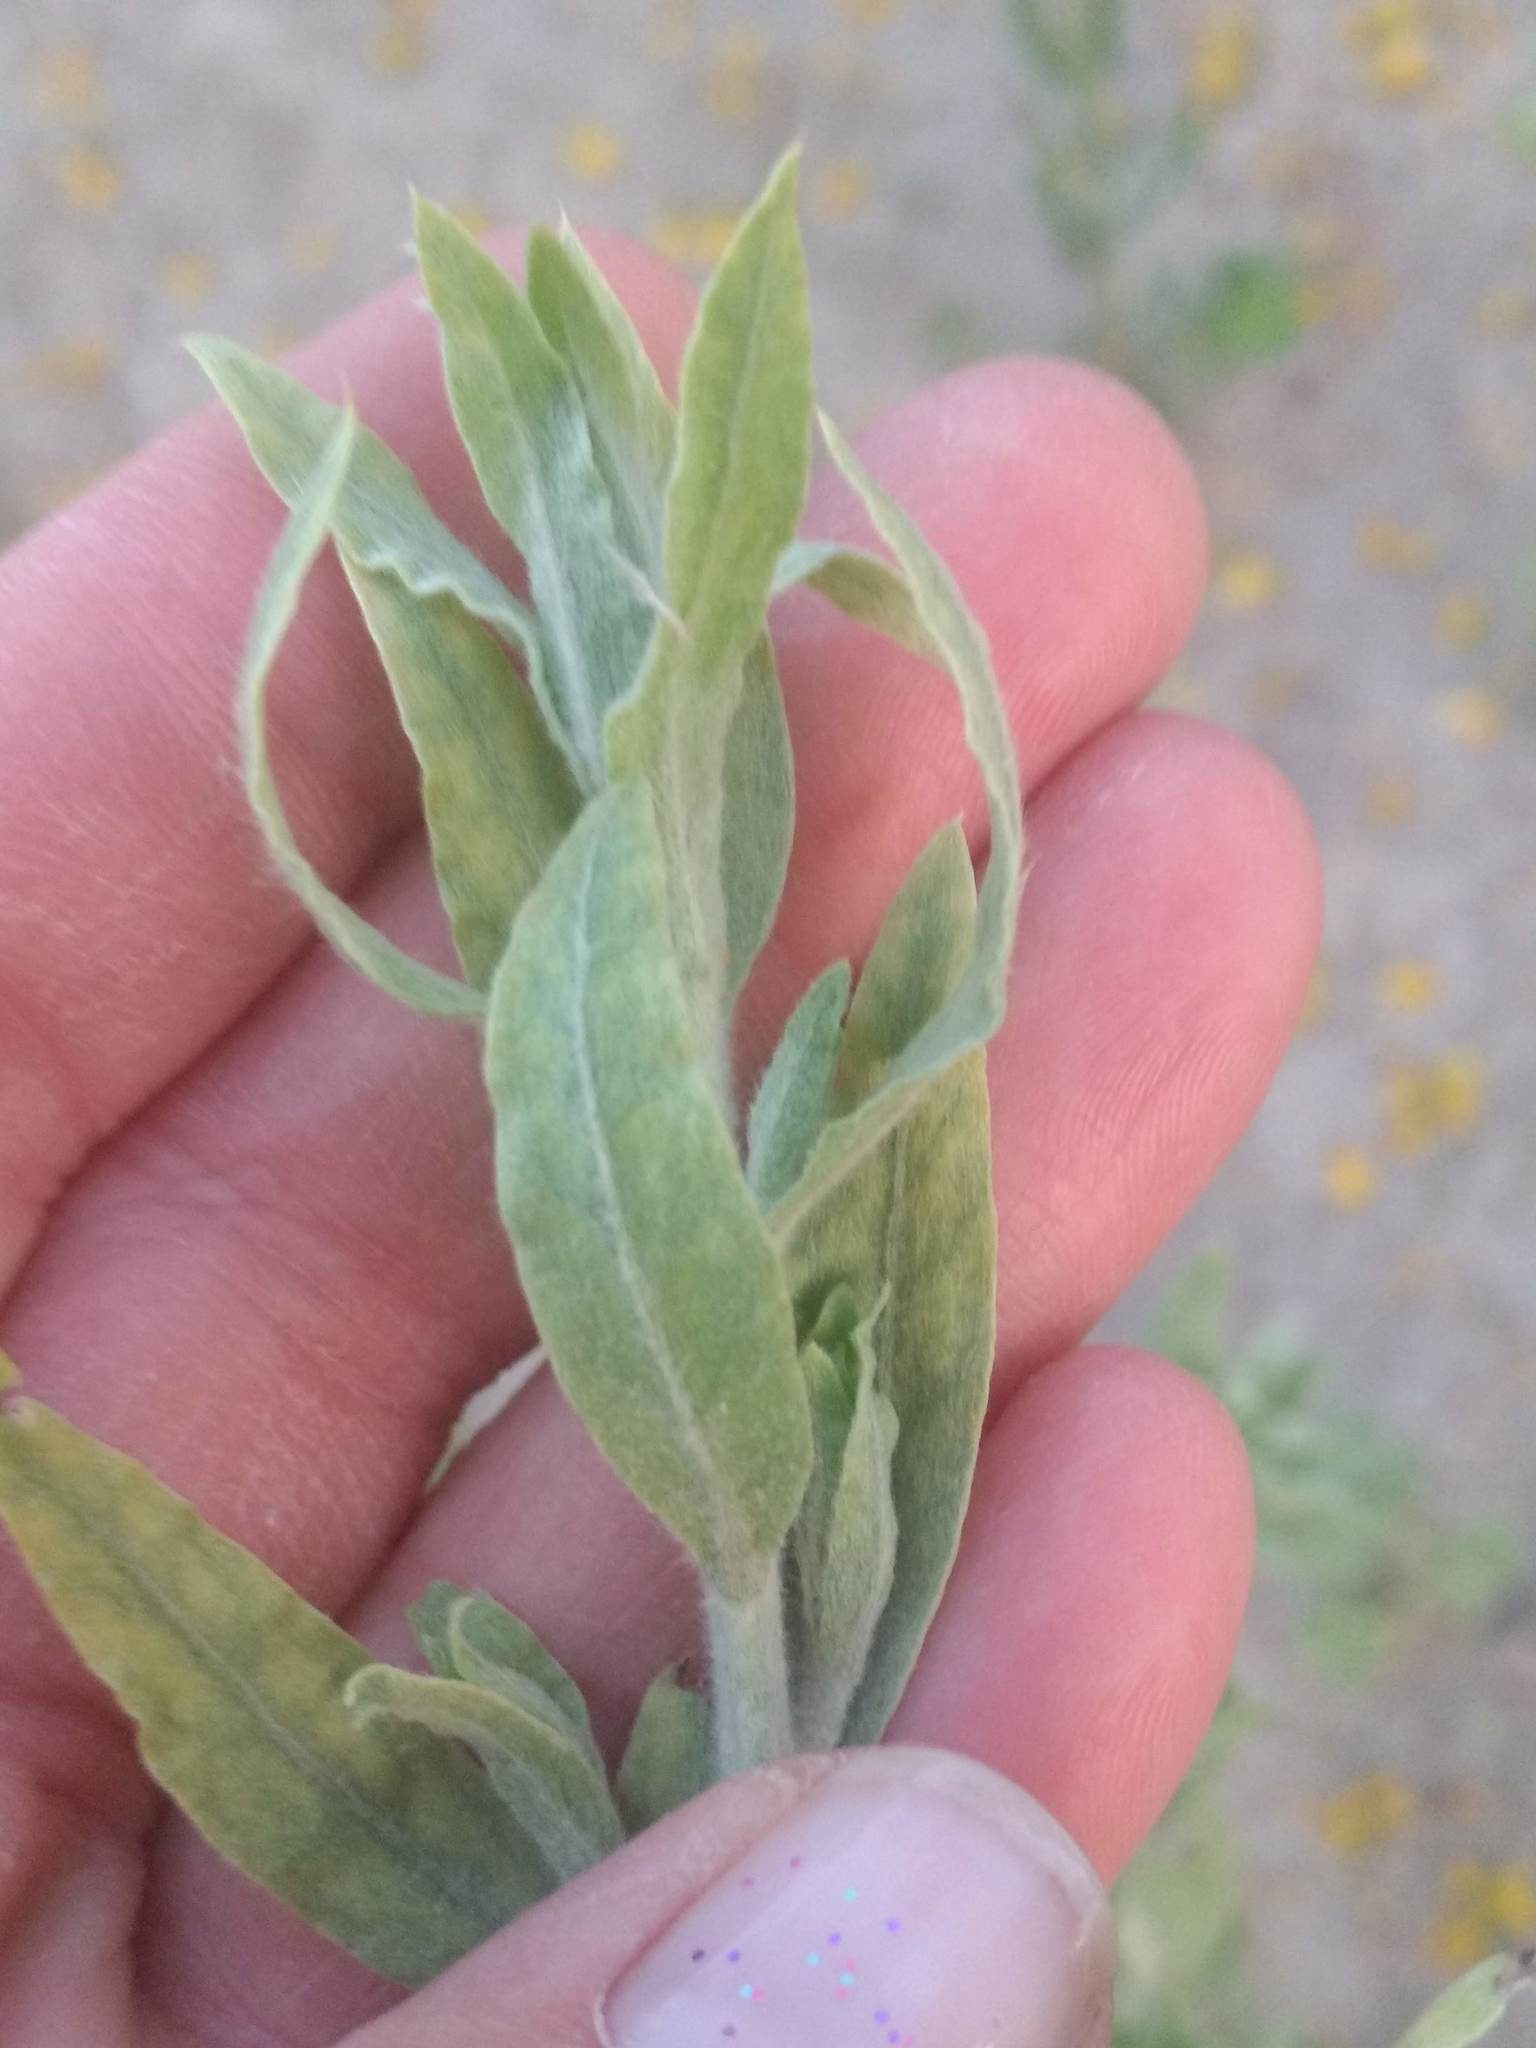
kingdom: Plantae
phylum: Tracheophyta
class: Magnoliopsida
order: Asterales
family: Asteraceae
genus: Pluchea
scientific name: Pluchea sericea
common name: Arrow-weed
